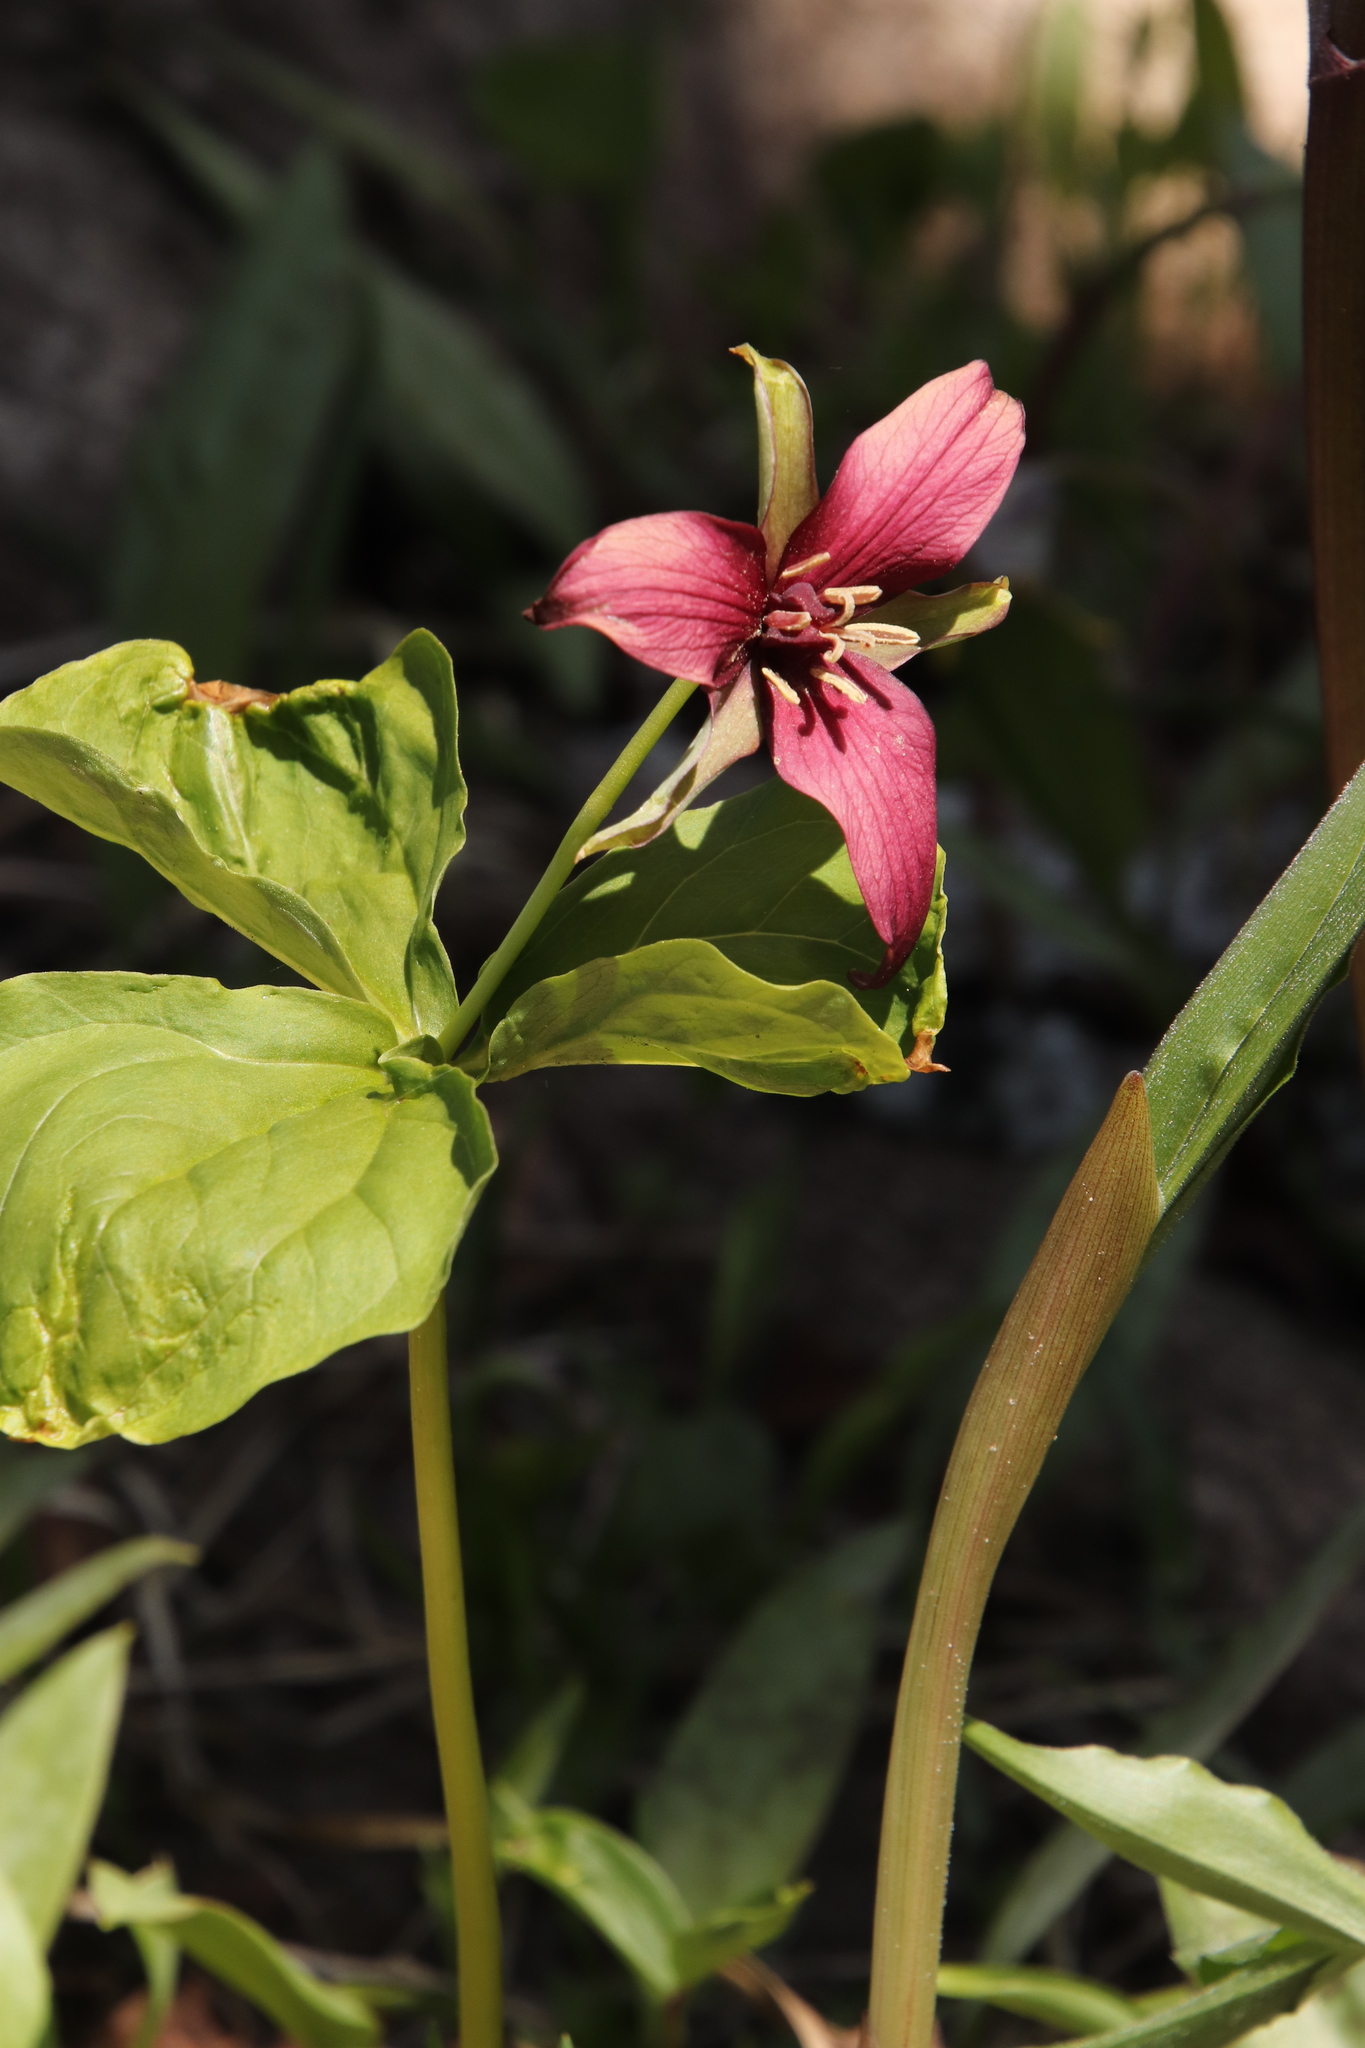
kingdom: Plantae
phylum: Tracheophyta
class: Liliopsida
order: Liliales
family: Melanthiaceae
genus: Trillium
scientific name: Trillium erectum
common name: Purple trillium
